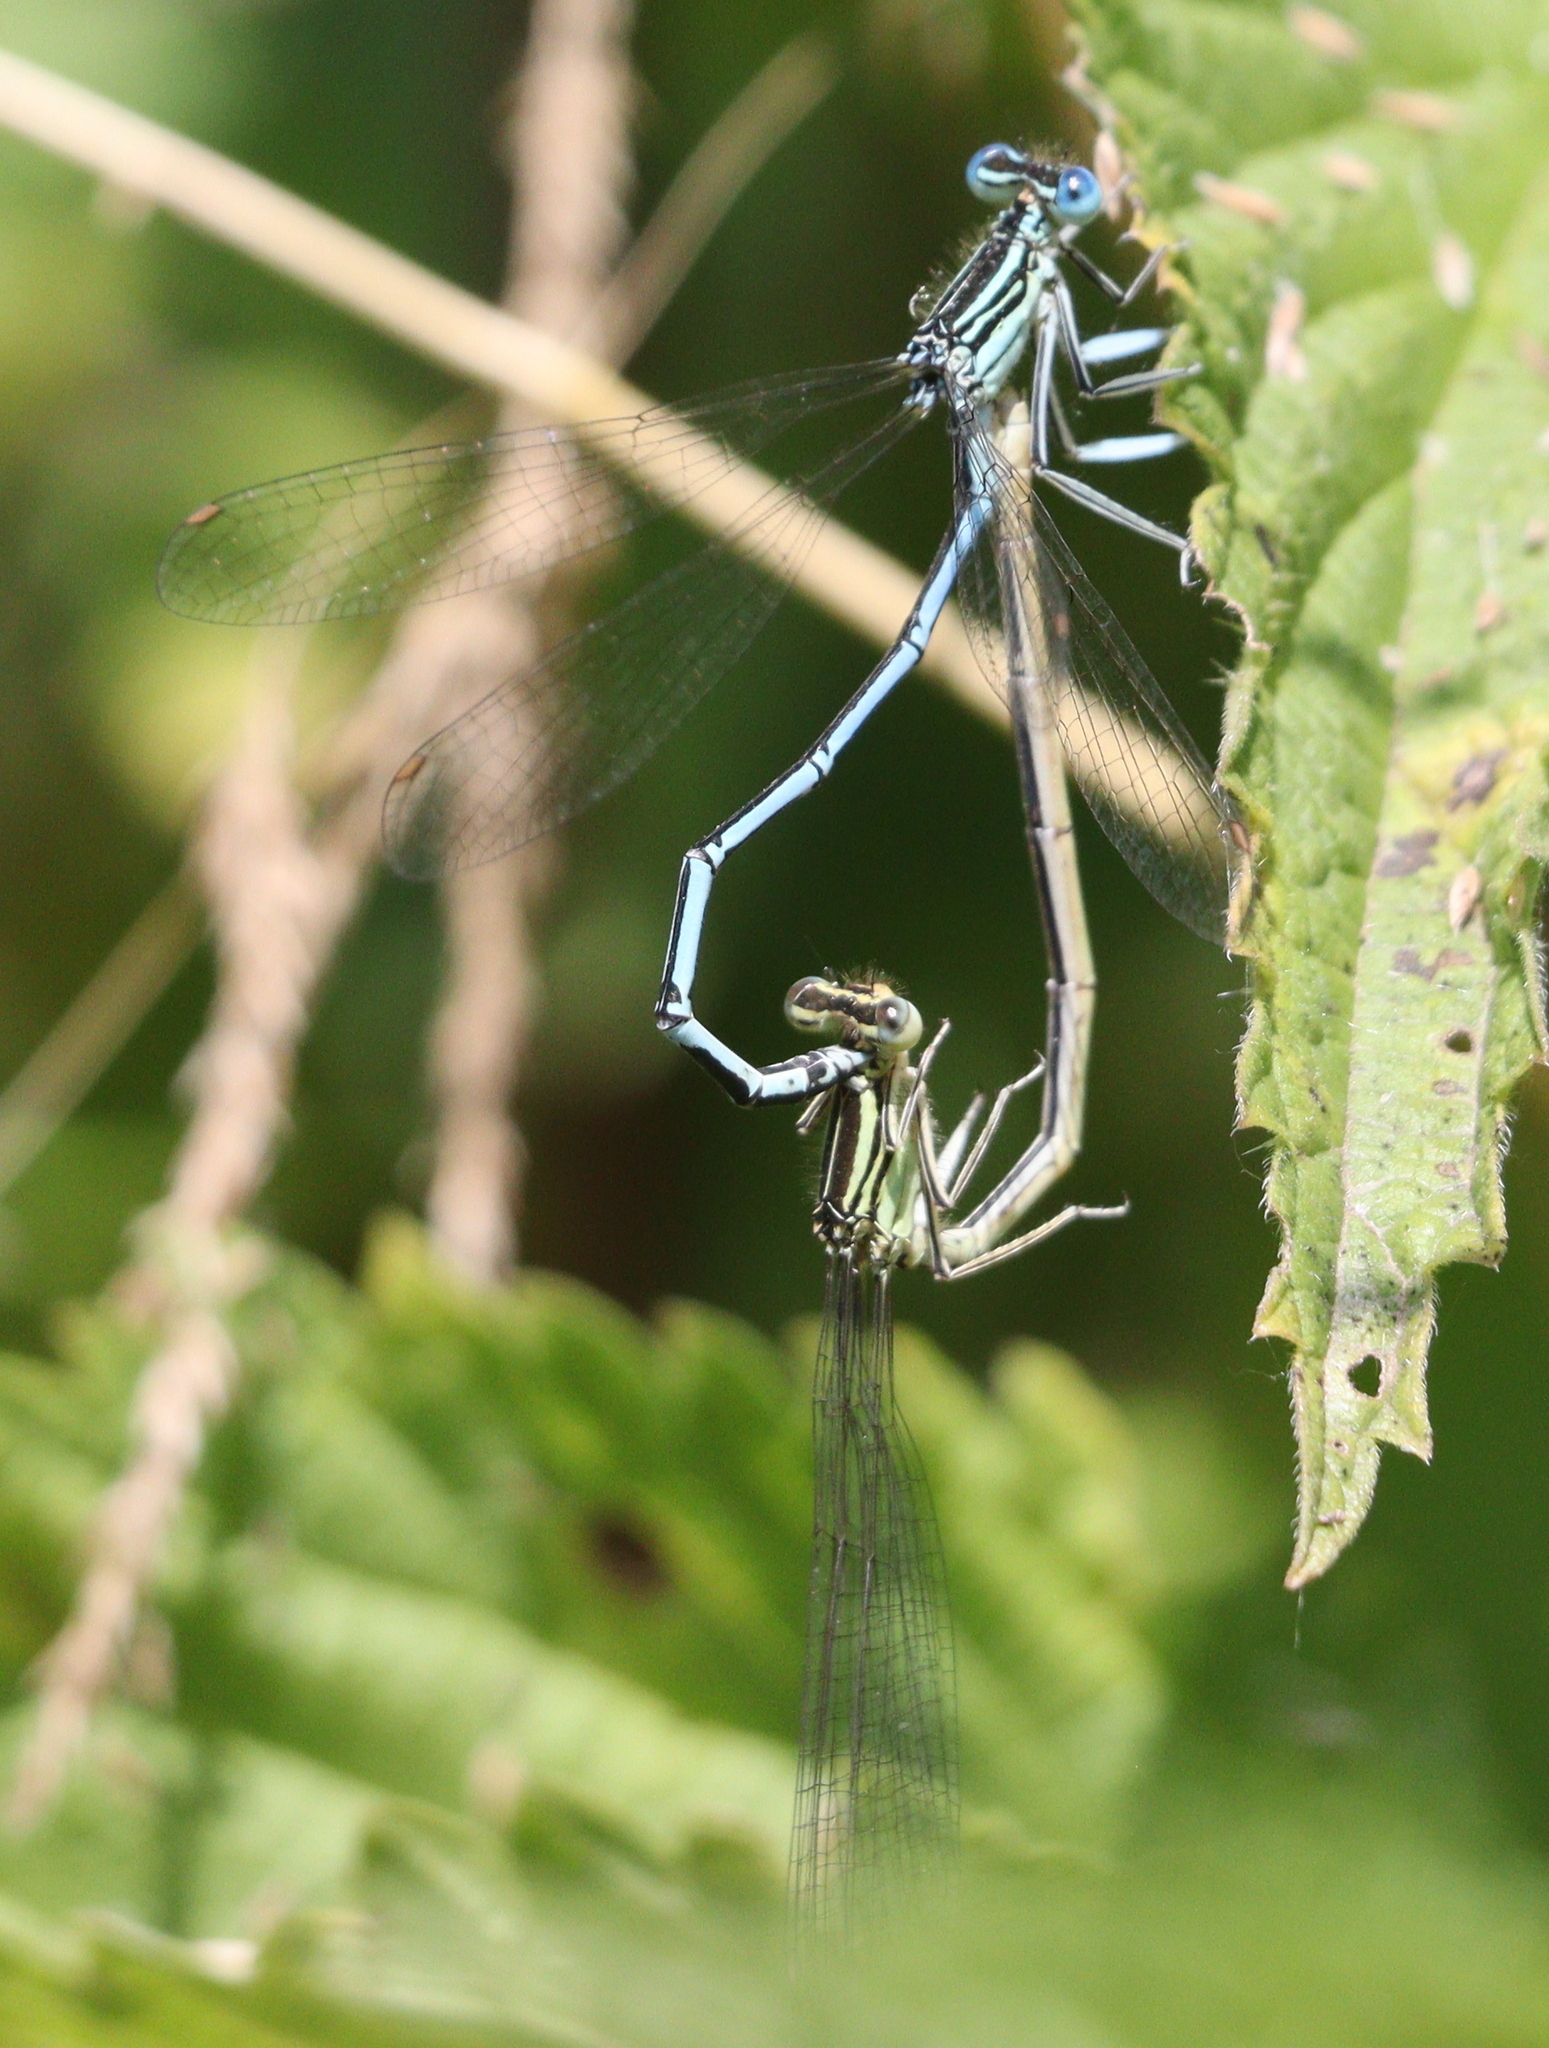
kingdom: Animalia
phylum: Arthropoda
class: Insecta
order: Odonata
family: Platycnemididae
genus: Platycnemis
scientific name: Platycnemis pennipes
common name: White-legged damselfly
